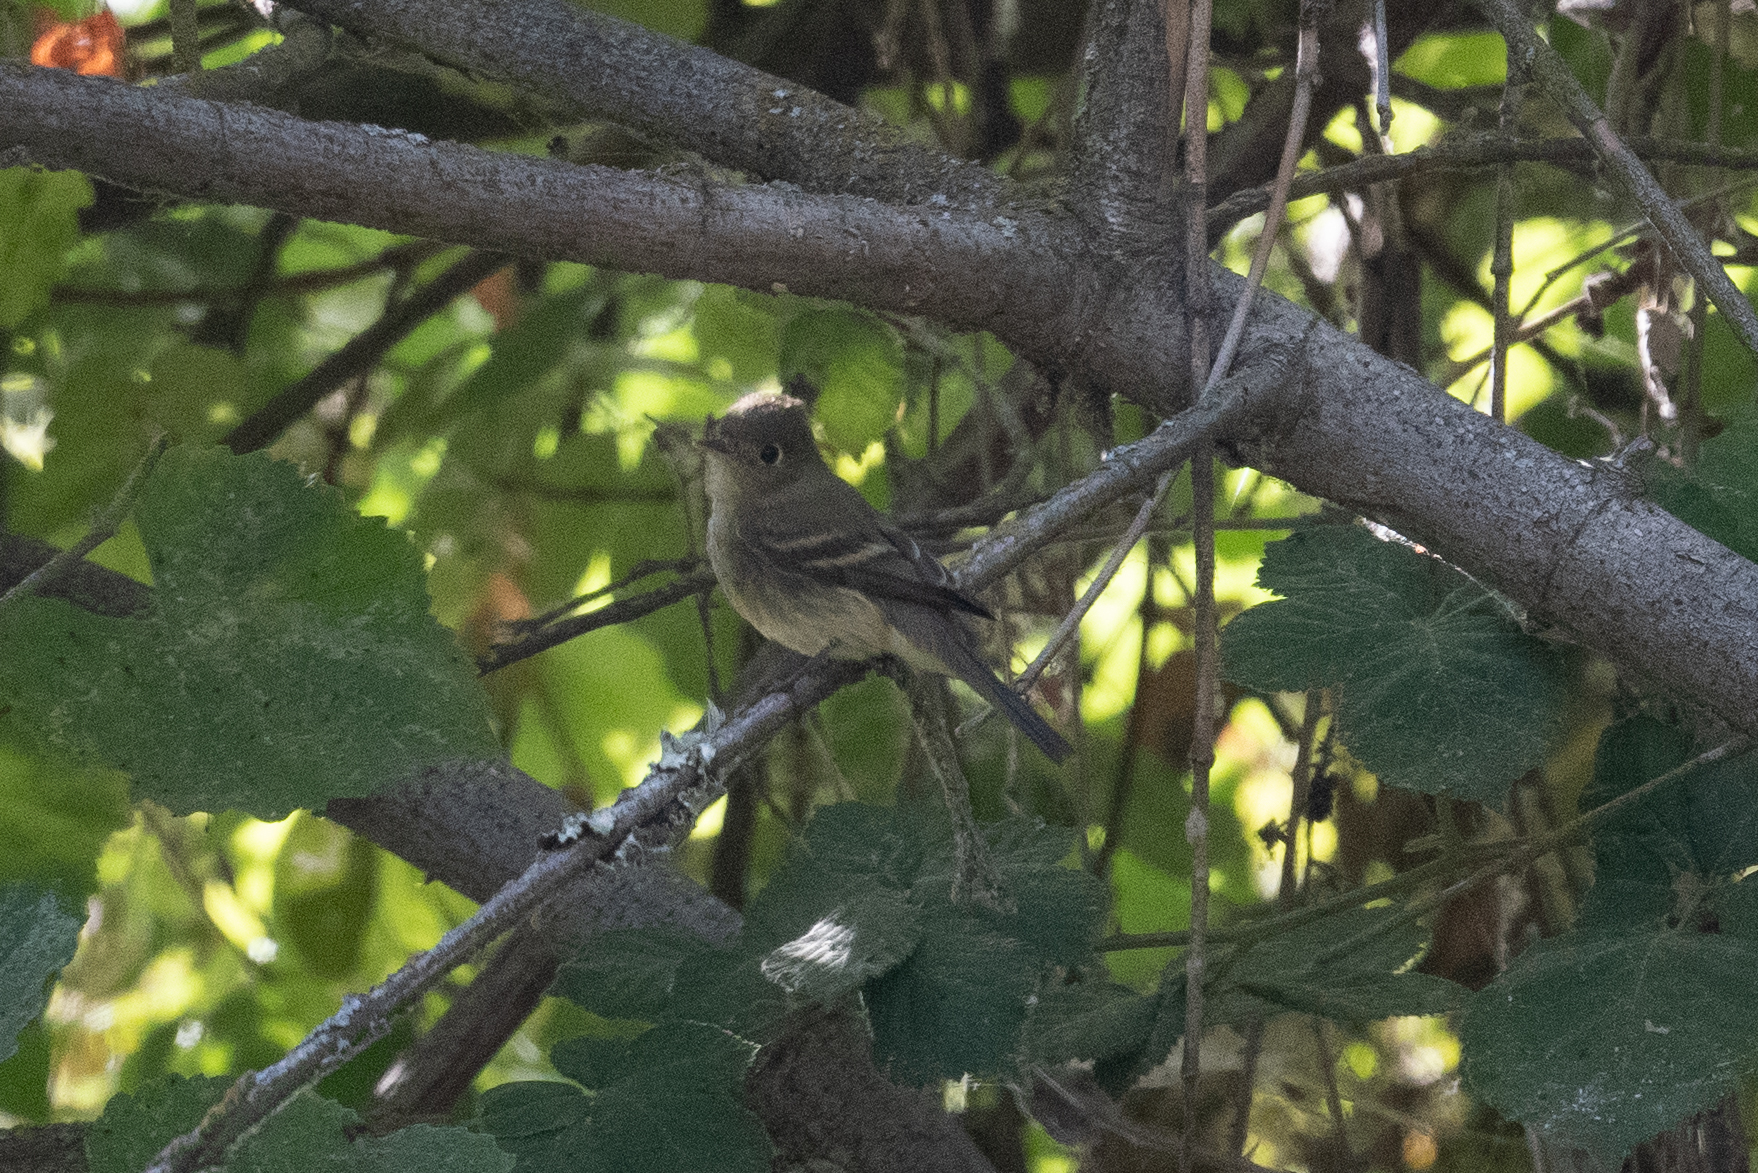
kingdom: Animalia
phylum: Chordata
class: Aves
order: Passeriformes
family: Tyrannidae
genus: Empidonax
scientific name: Empidonax difficilis
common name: Pacific-slope flycatcher
